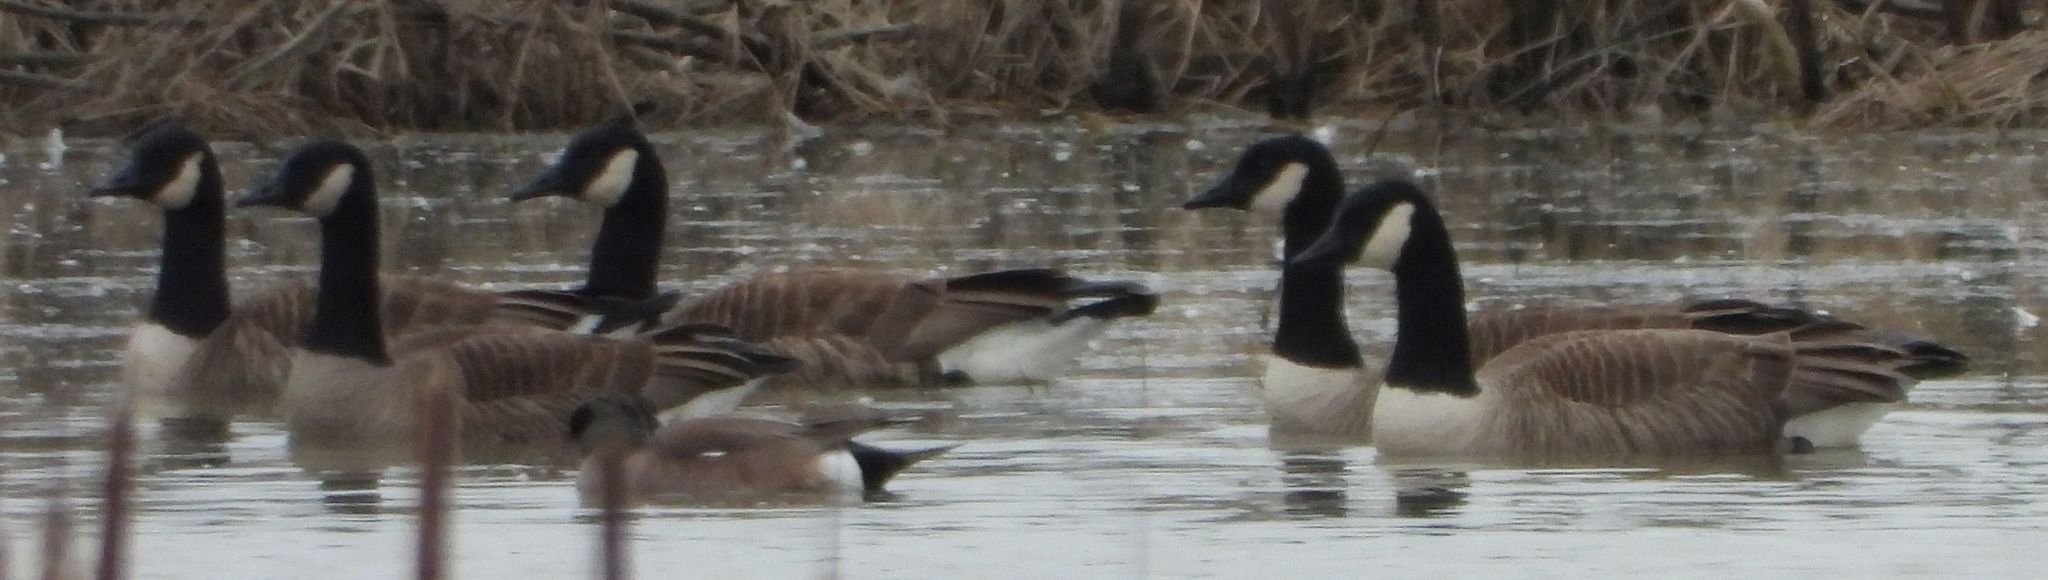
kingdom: Animalia
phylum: Chordata
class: Aves
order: Anseriformes
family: Anatidae
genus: Branta
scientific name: Branta canadensis
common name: Canada goose
